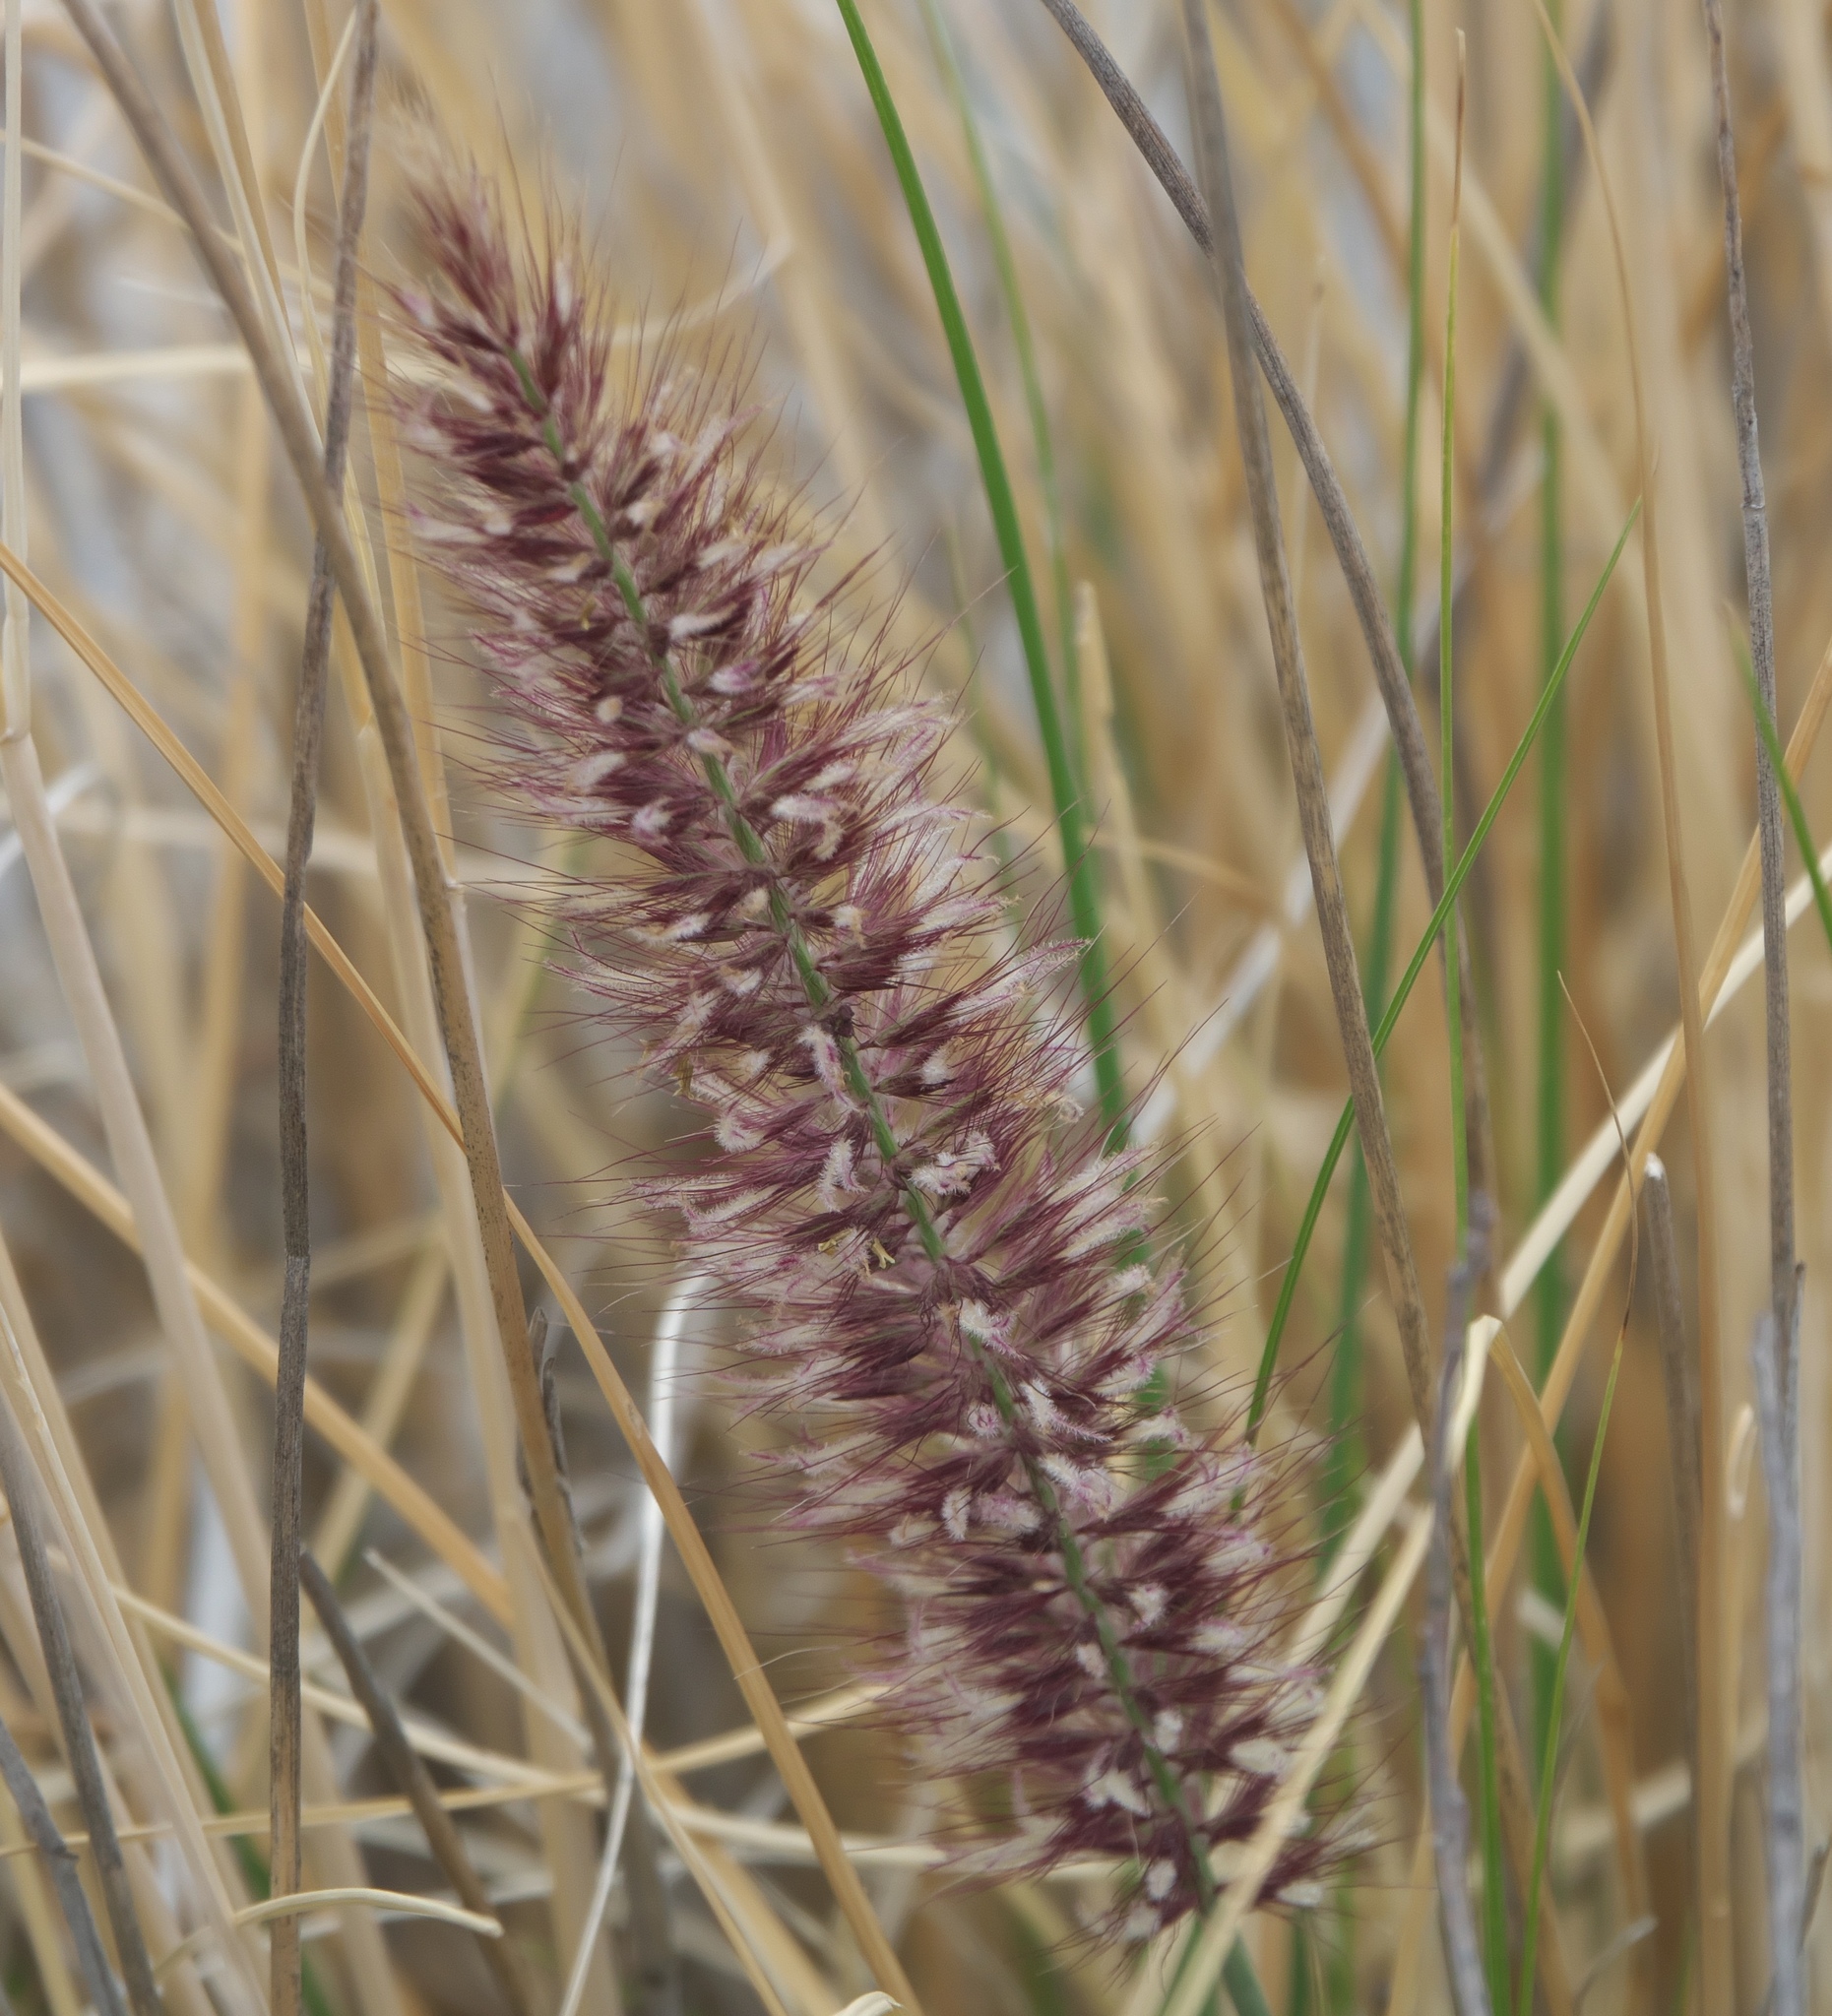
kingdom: Plantae
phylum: Tracheophyta
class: Liliopsida
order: Poales
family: Poaceae
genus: Cenchrus
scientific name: Cenchrus setaceus
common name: Crimson fountaingrass
